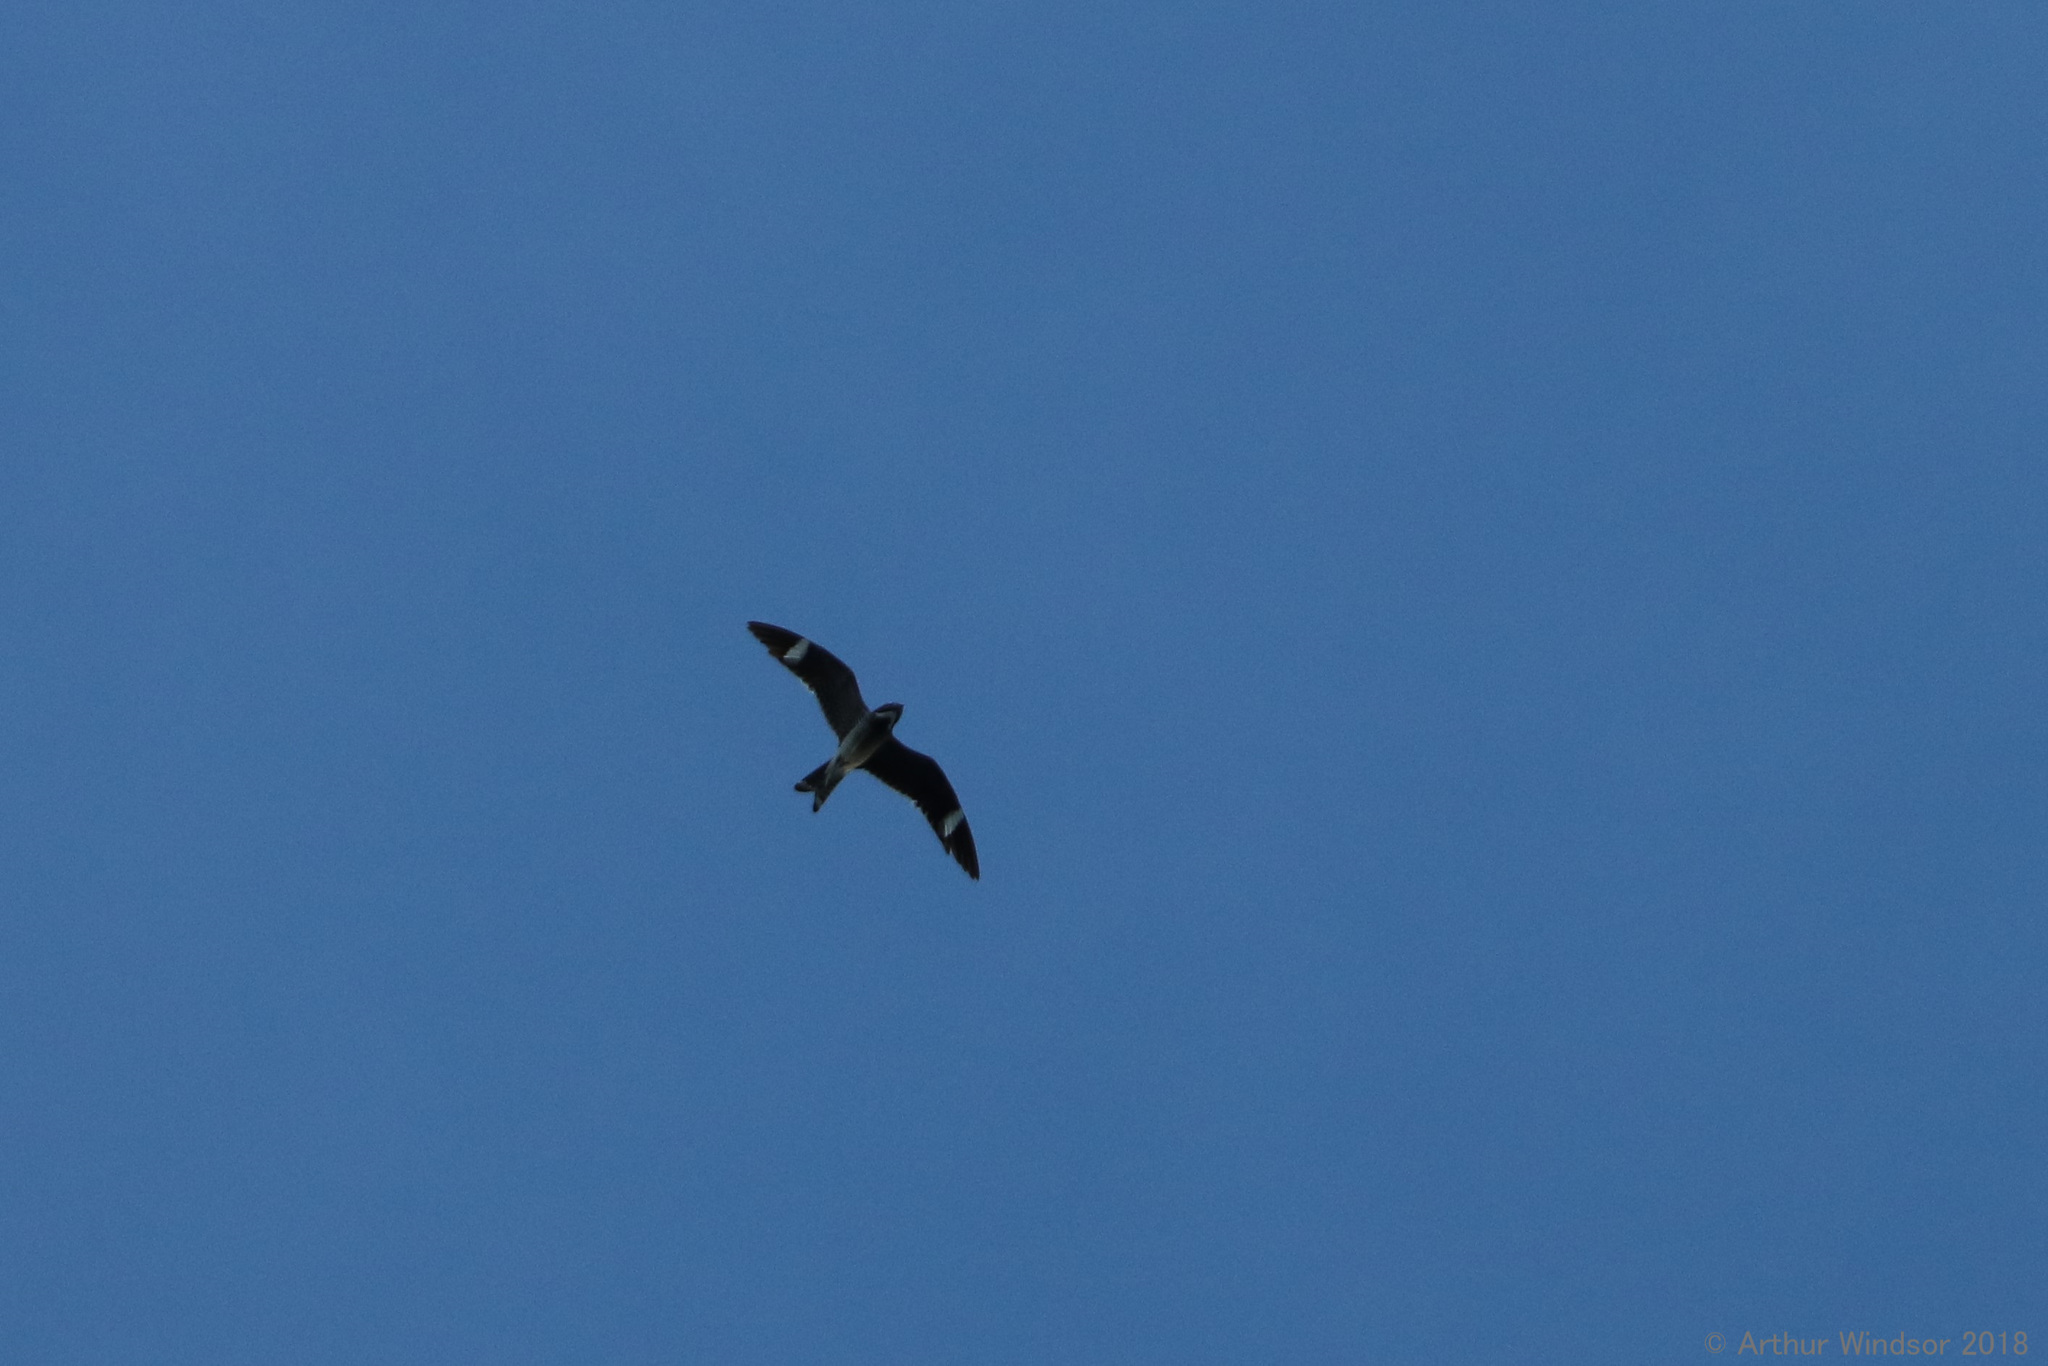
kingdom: Animalia
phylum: Chordata
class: Aves
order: Caprimulgiformes
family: Caprimulgidae
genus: Chordeiles
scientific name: Chordeiles minor
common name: Common nighthawk
